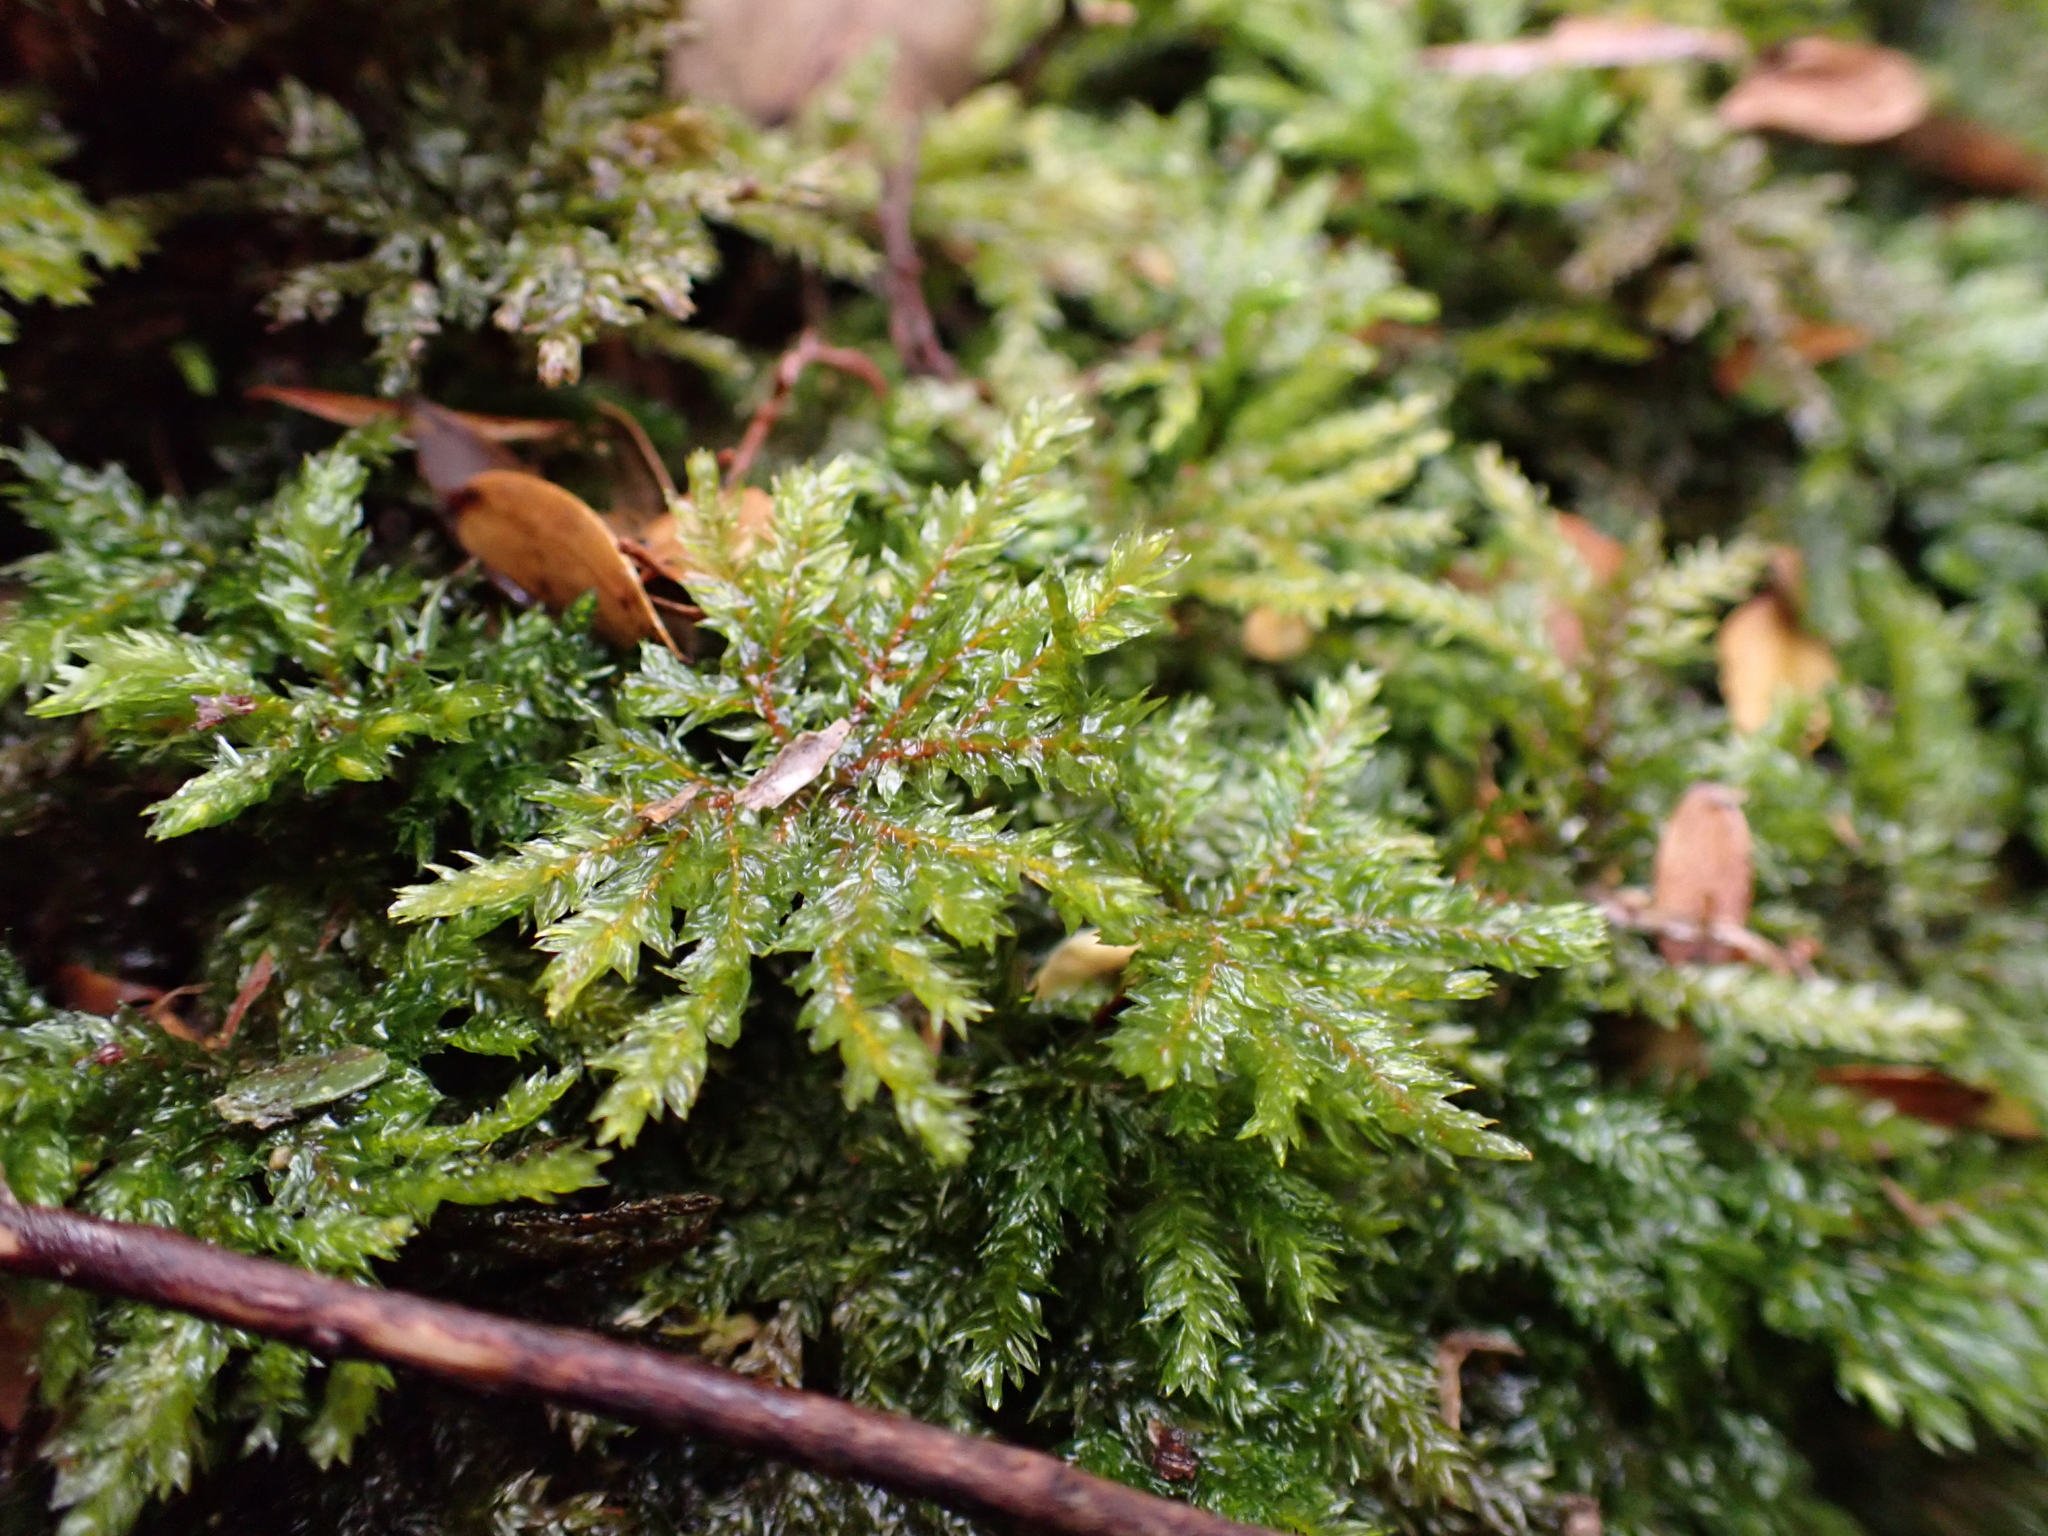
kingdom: Plantae
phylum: Bryophyta
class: Bryopsida
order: Hypnodendrales
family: Spiridentaceae
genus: Hypnodendron
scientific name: Hypnodendron
